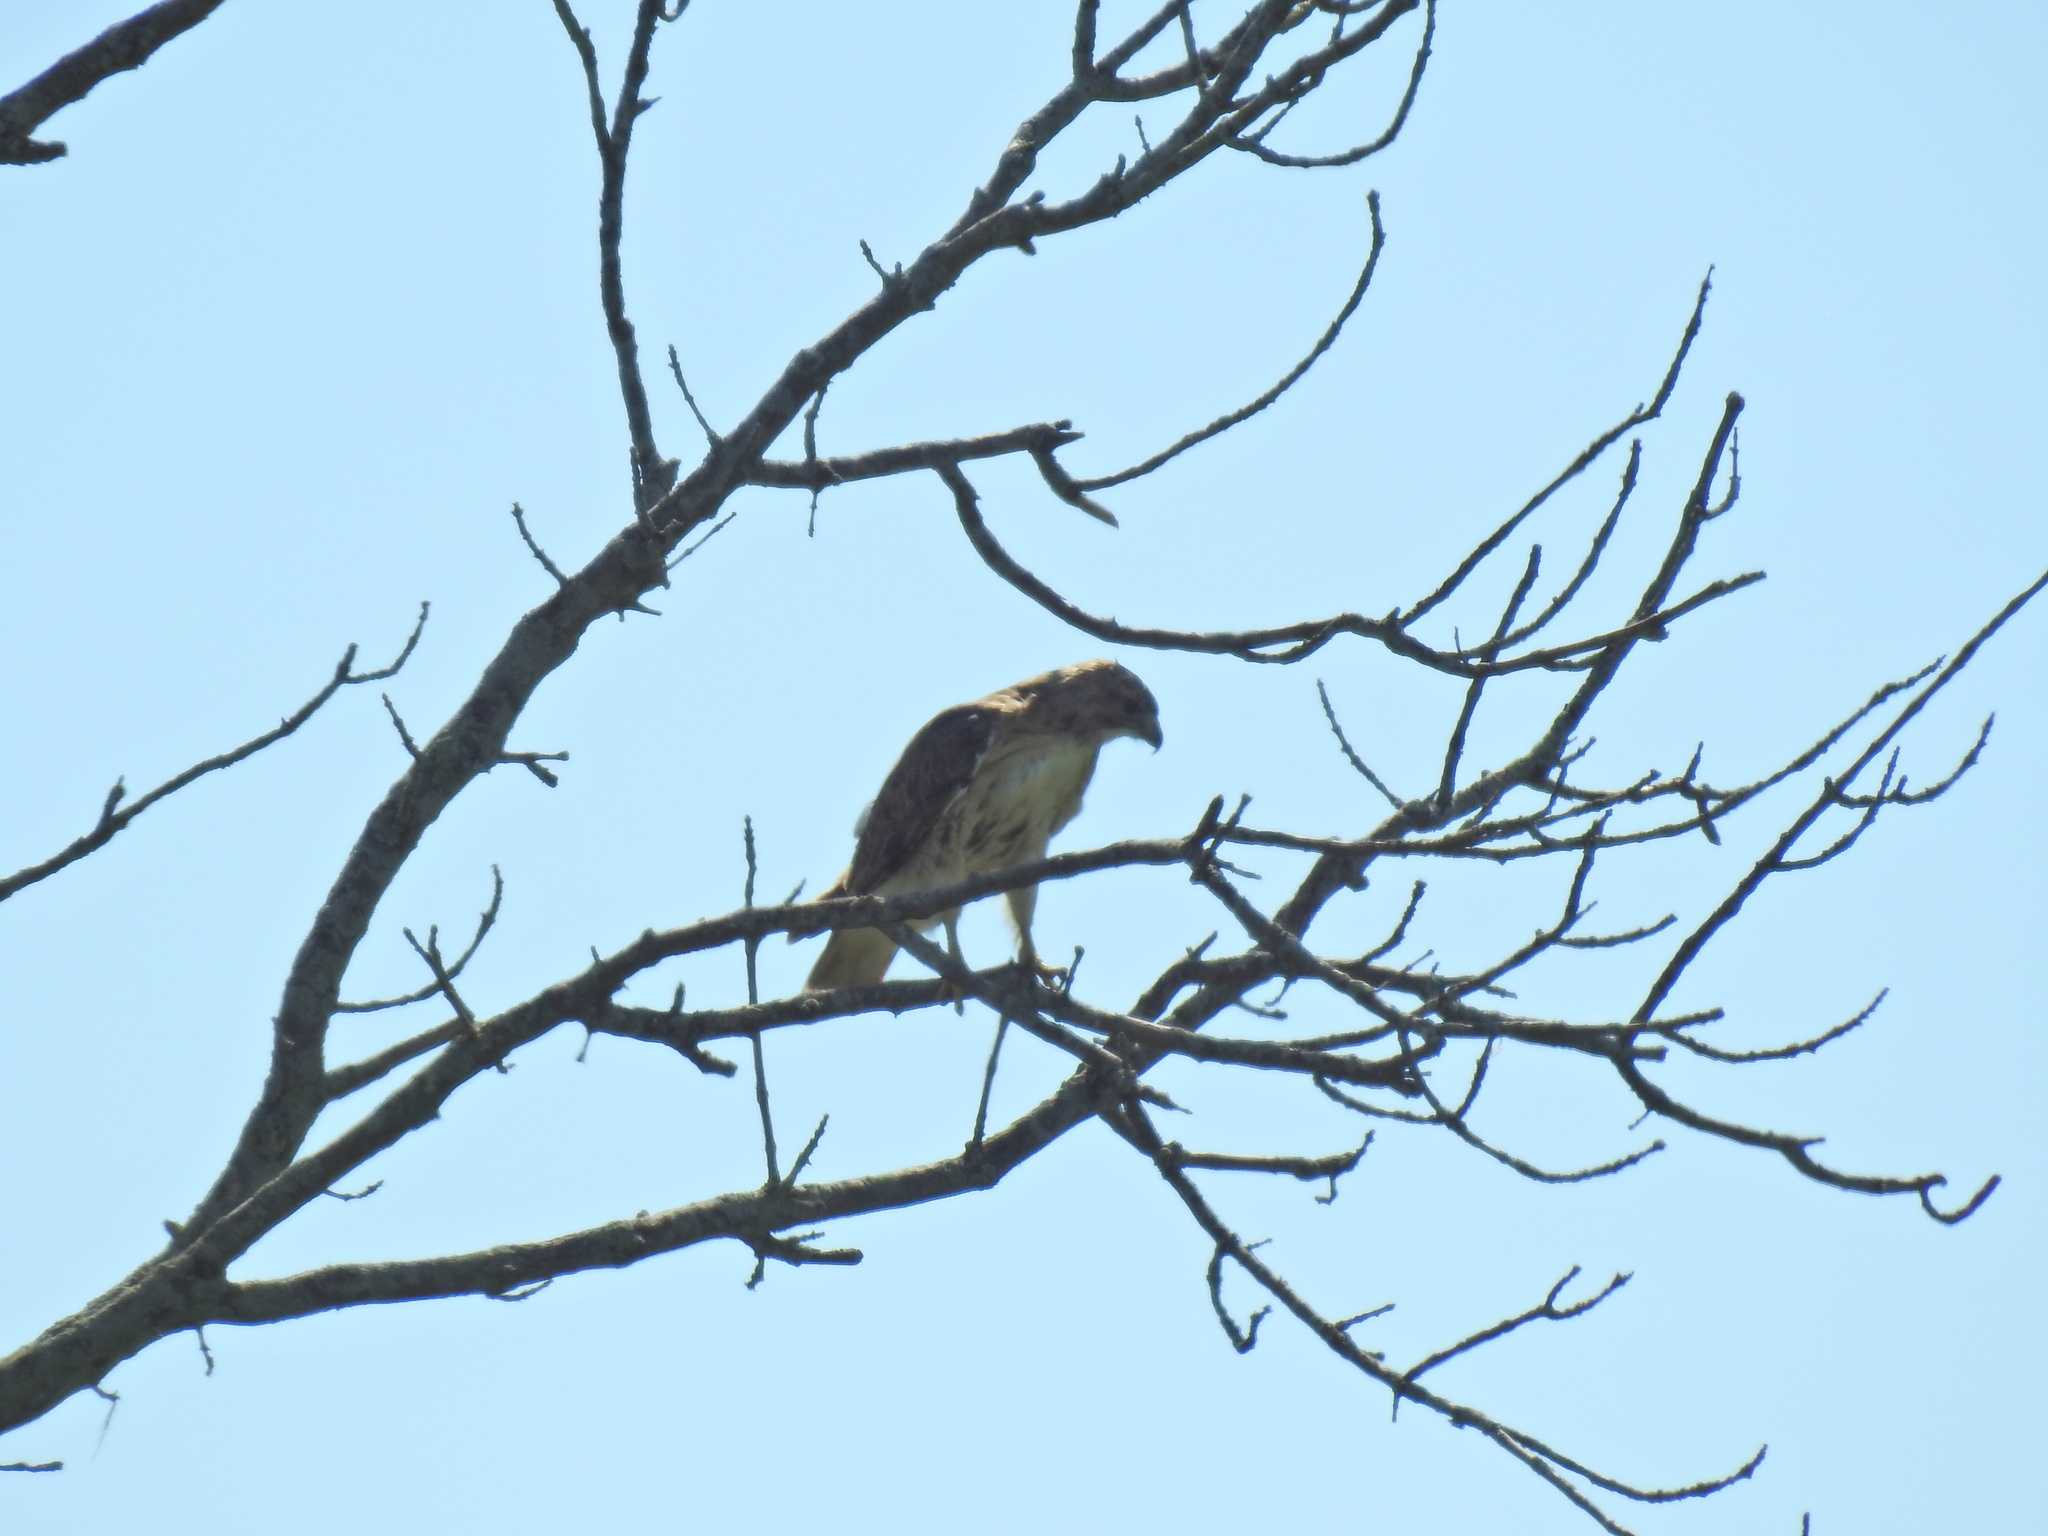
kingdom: Animalia
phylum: Chordata
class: Aves
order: Accipitriformes
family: Accipitridae
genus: Buteo
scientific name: Buteo jamaicensis
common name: Red-tailed hawk
